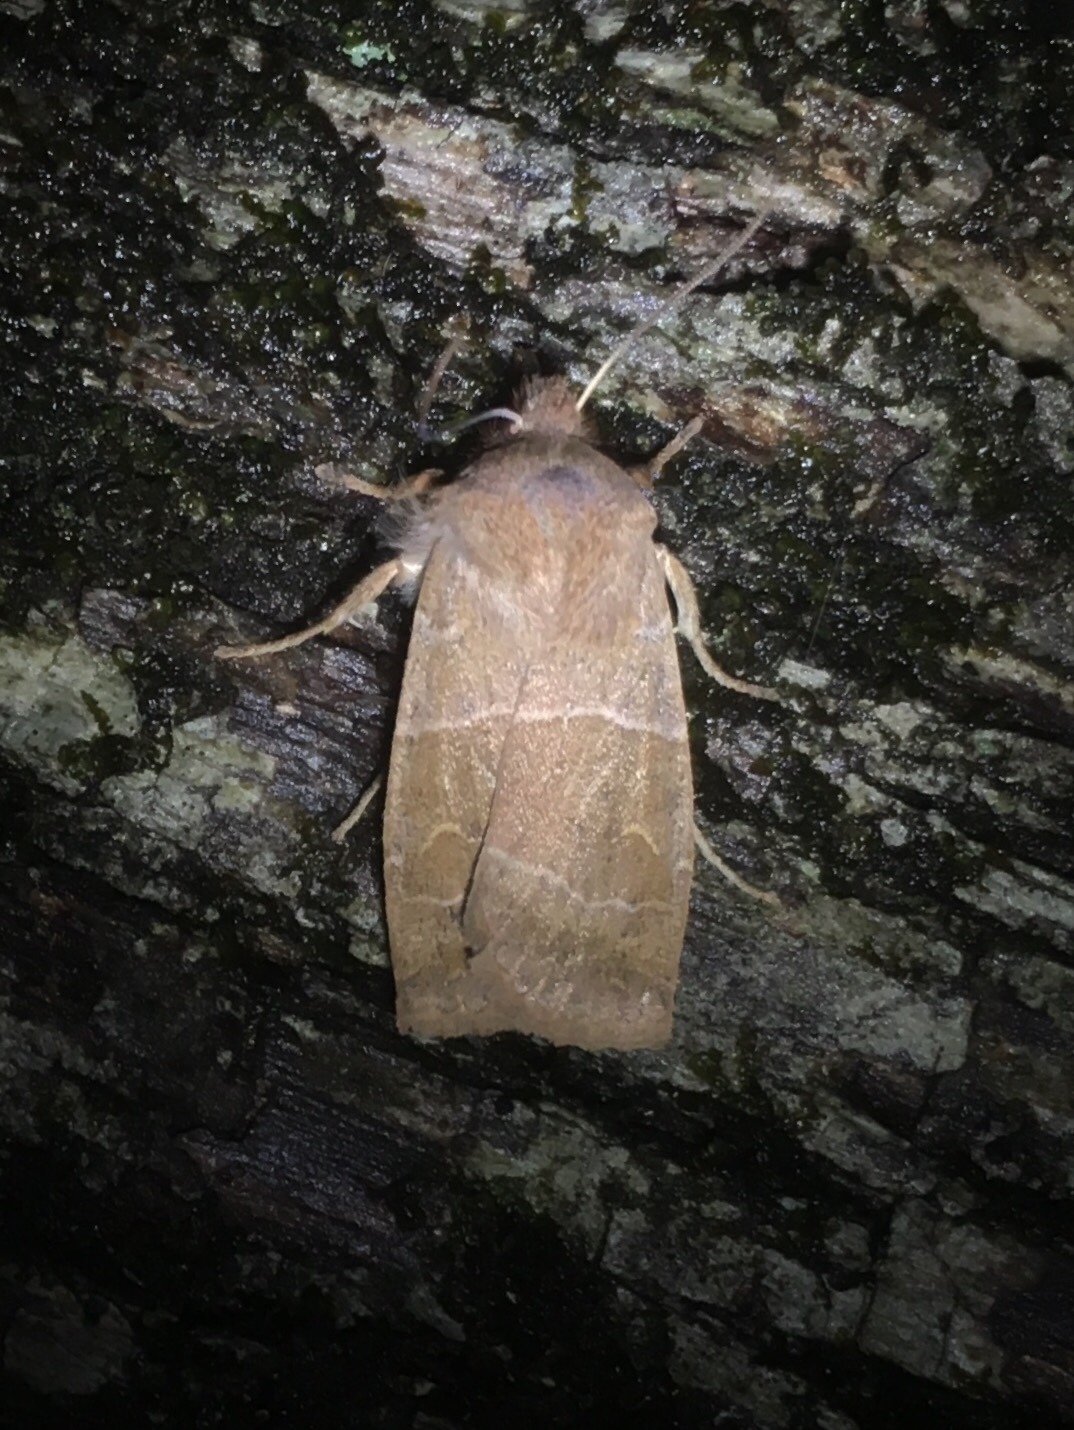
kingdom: Animalia
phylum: Arthropoda
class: Insecta
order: Lepidoptera
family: Noctuidae
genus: Eupsilia
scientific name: Eupsilia morrisoni
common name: Morrison's sallow
